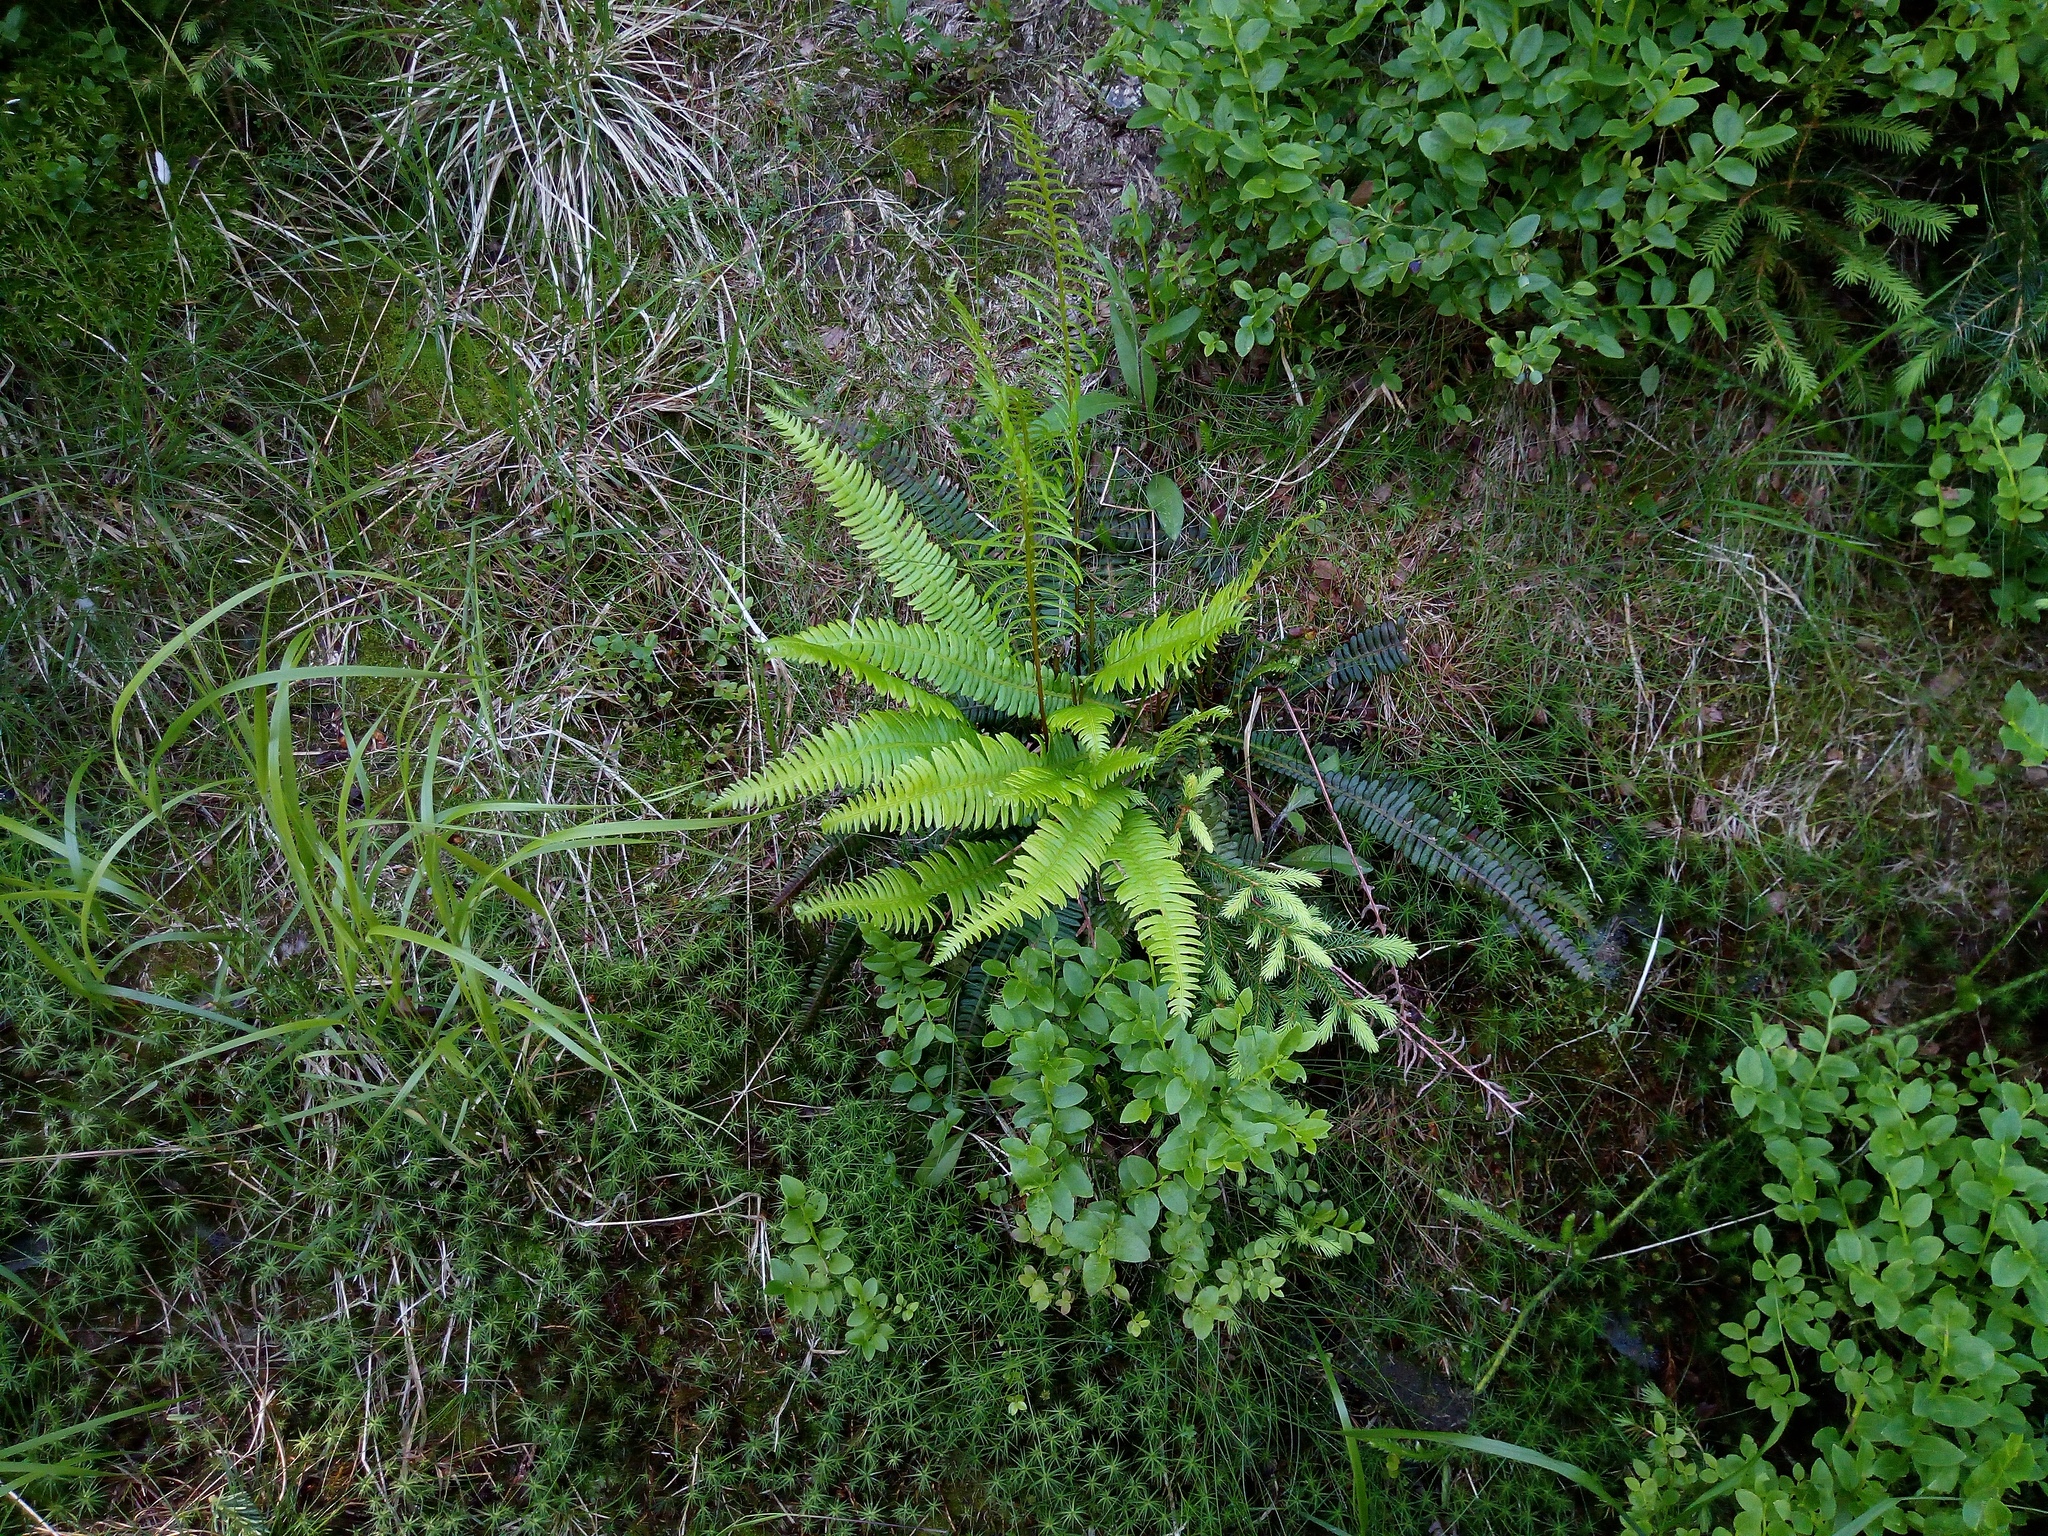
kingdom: Plantae
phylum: Tracheophyta
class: Polypodiopsida
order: Polypodiales
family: Blechnaceae
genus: Struthiopteris
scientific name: Struthiopteris spicant
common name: Deer fern
